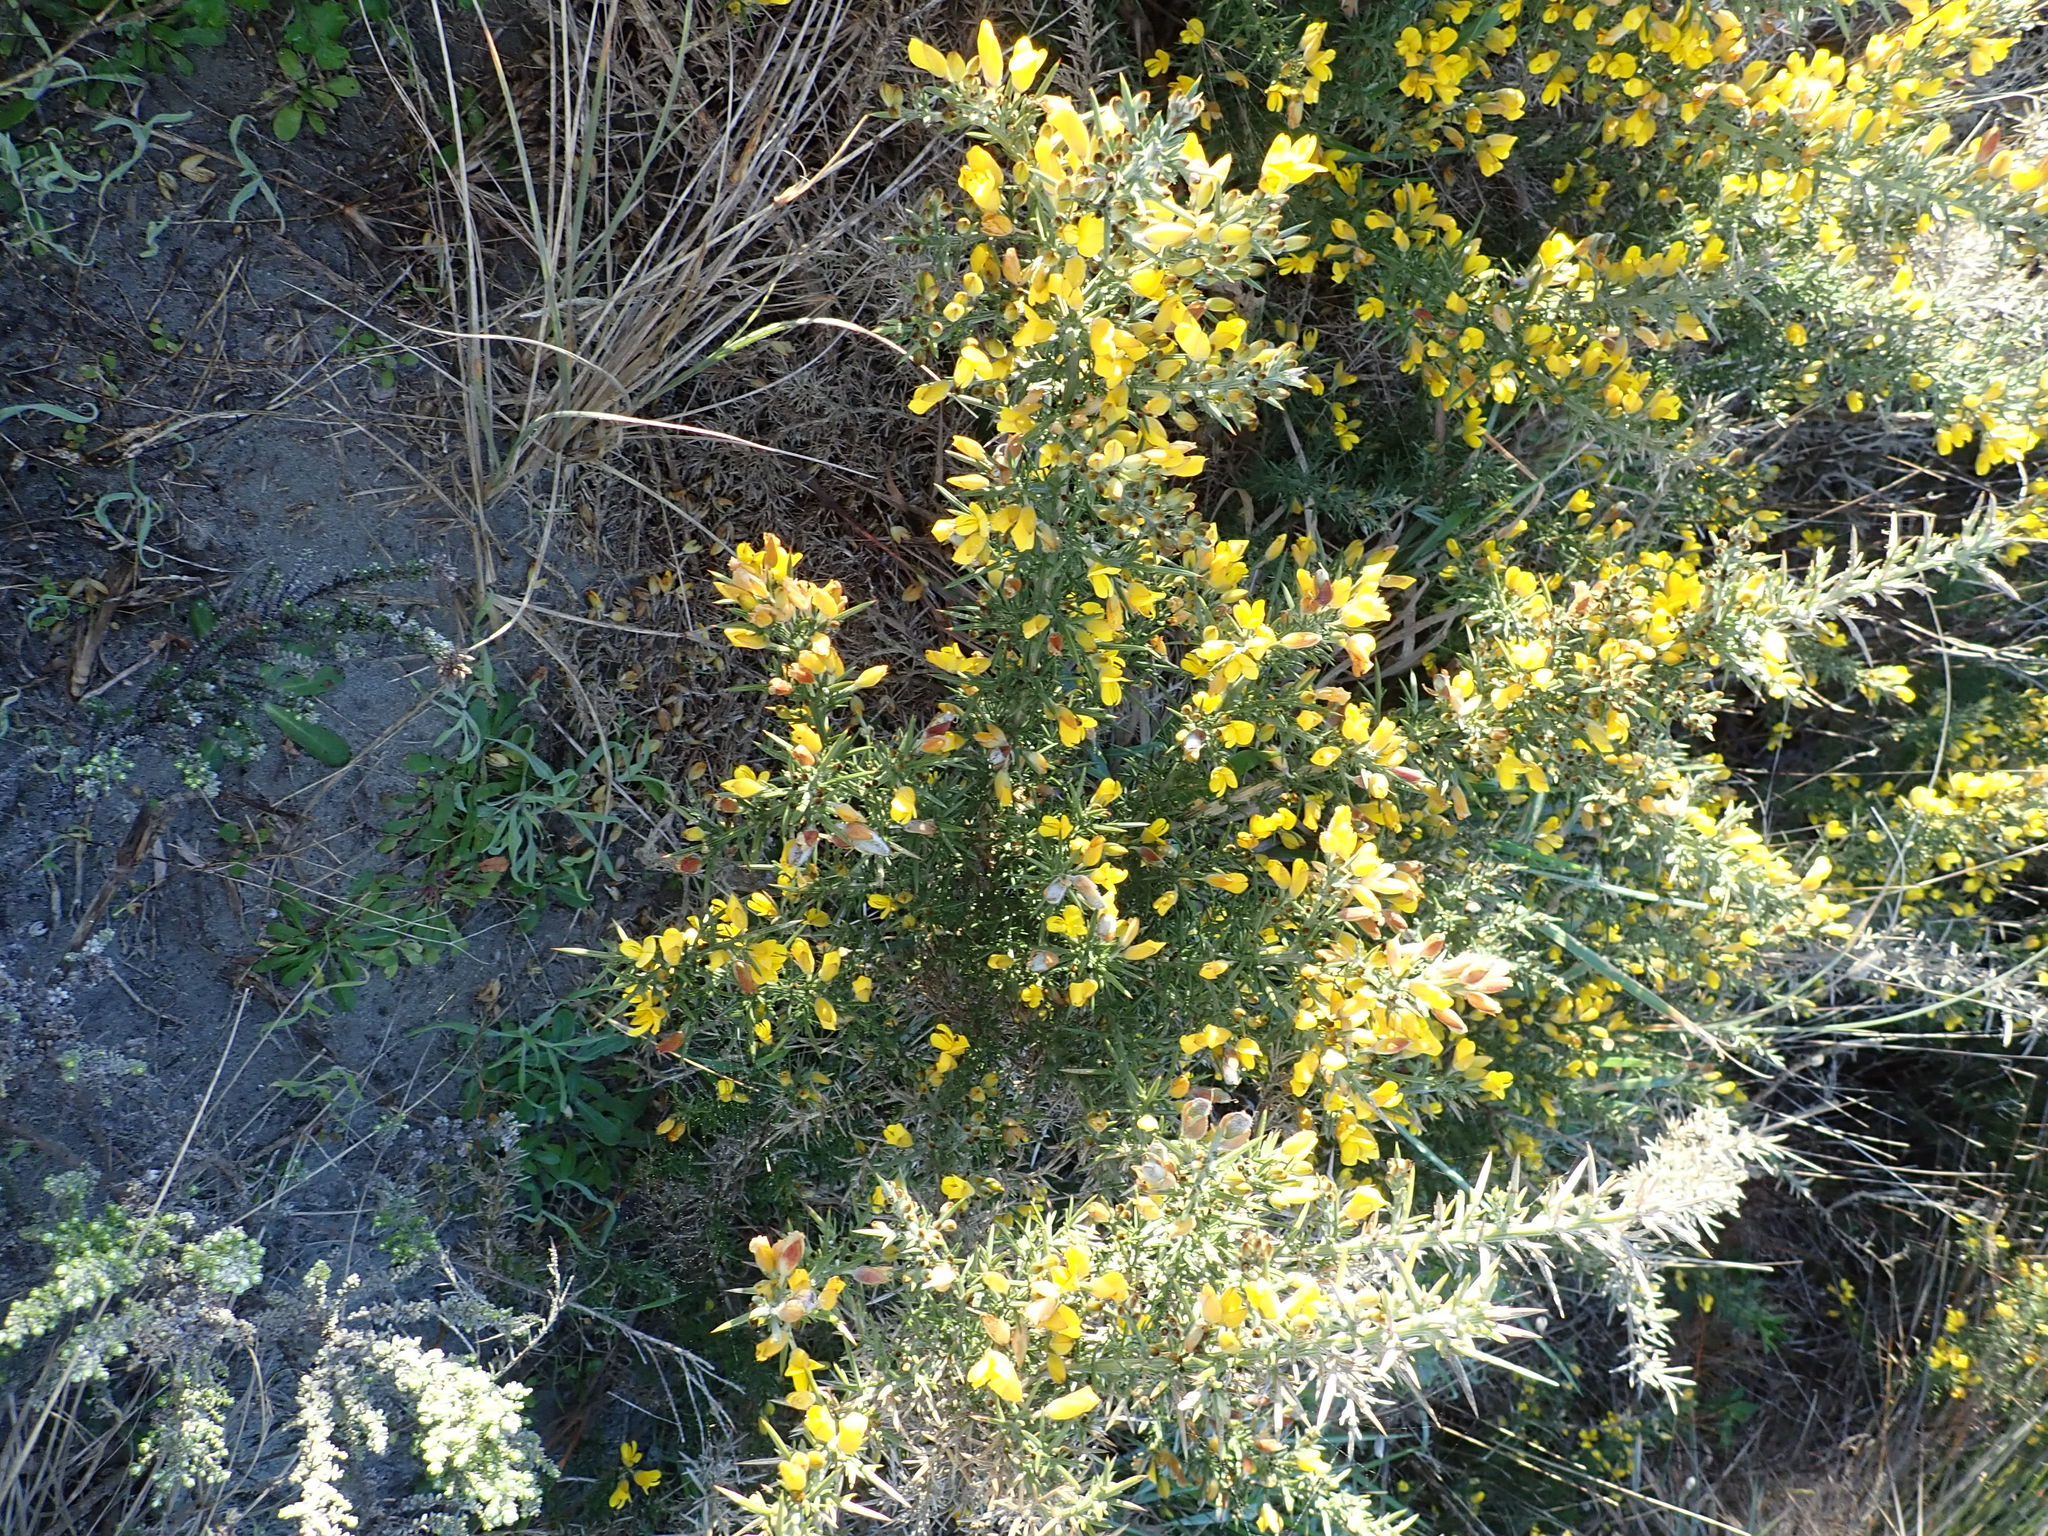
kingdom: Plantae
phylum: Tracheophyta
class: Magnoliopsida
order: Fabales
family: Fabaceae
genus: Ulex
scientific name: Ulex europaeus
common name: Common gorse
